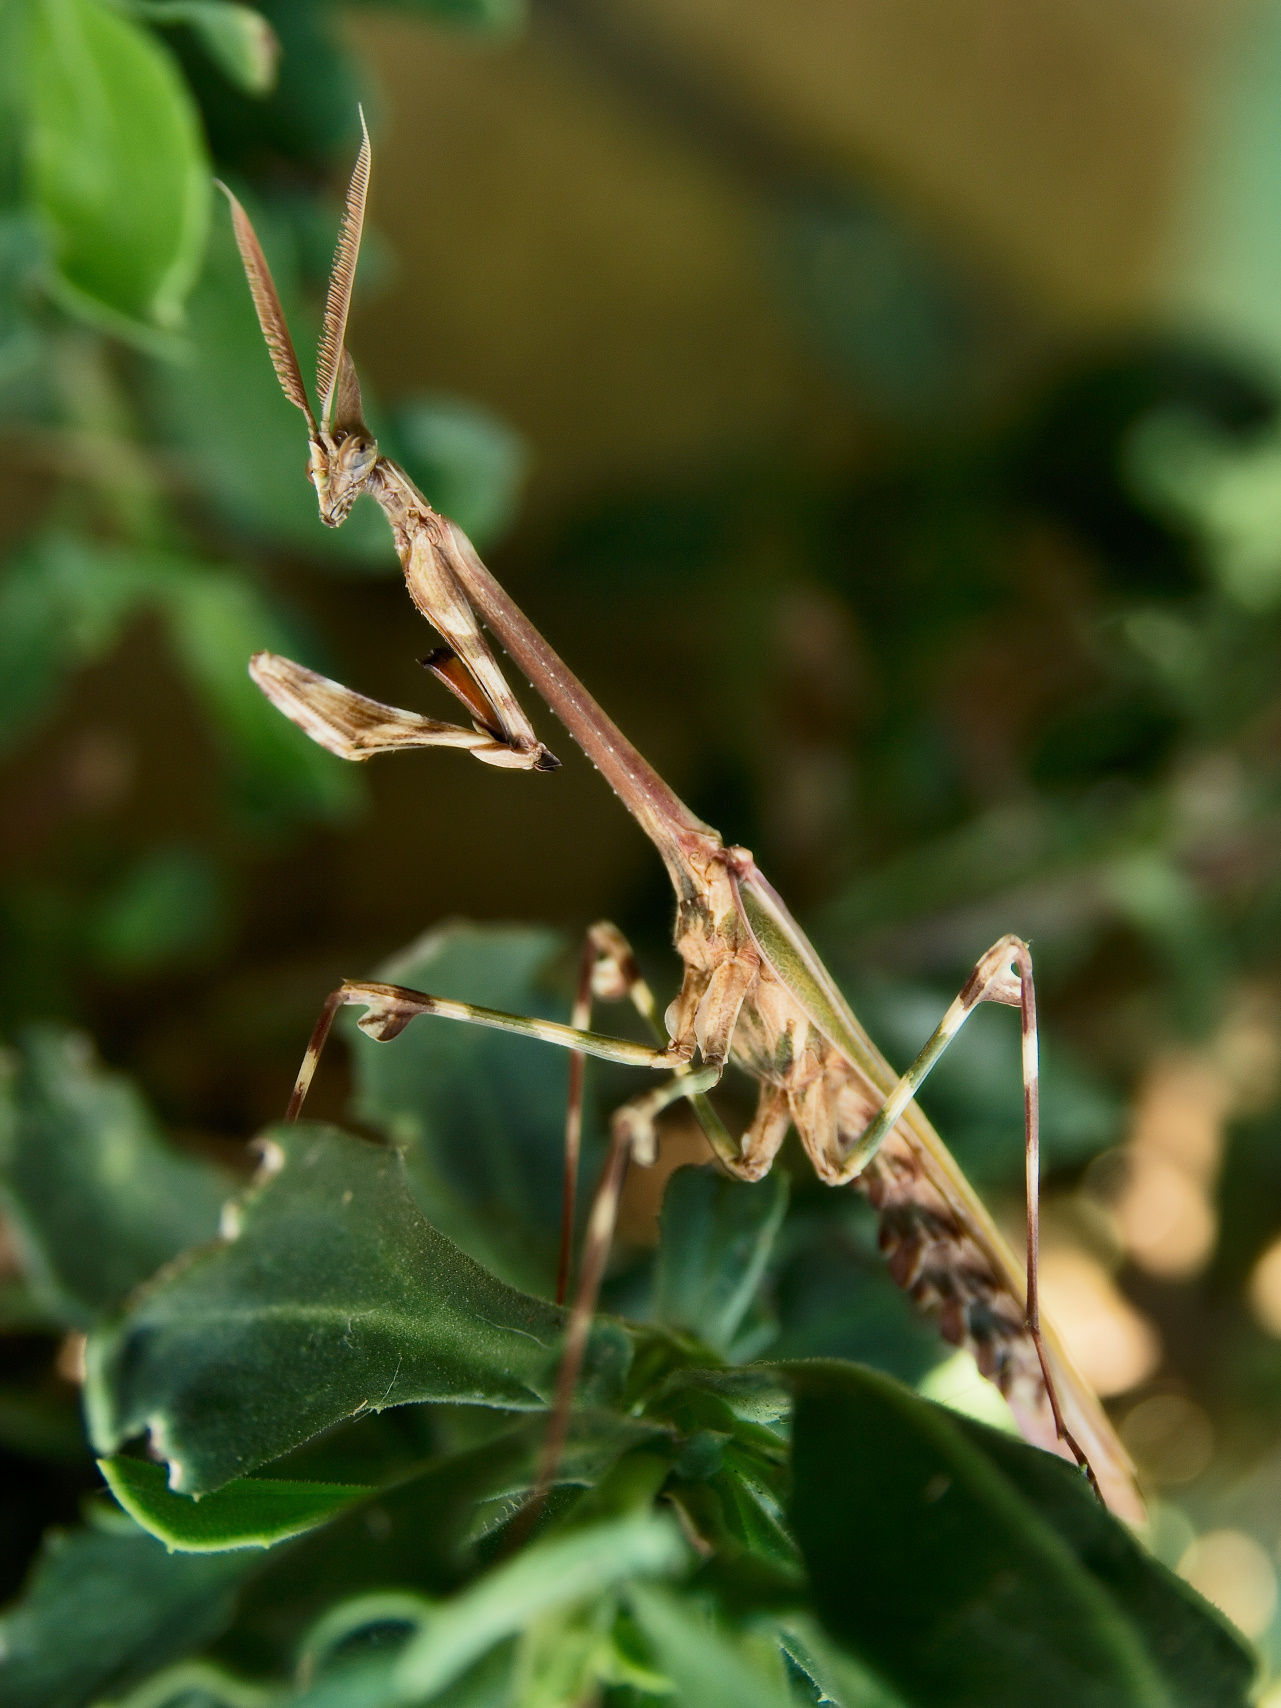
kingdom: Animalia
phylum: Arthropoda
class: Insecta
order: Mantodea
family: Empusidae
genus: Empusa
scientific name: Empusa binotata
